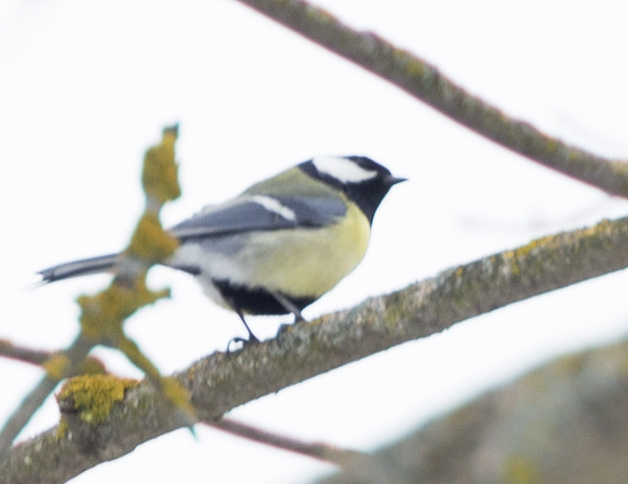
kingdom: Animalia
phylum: Chordata
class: Aves
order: Passeriformes
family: Paridae
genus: Parus
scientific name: Parus major
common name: Great tit
